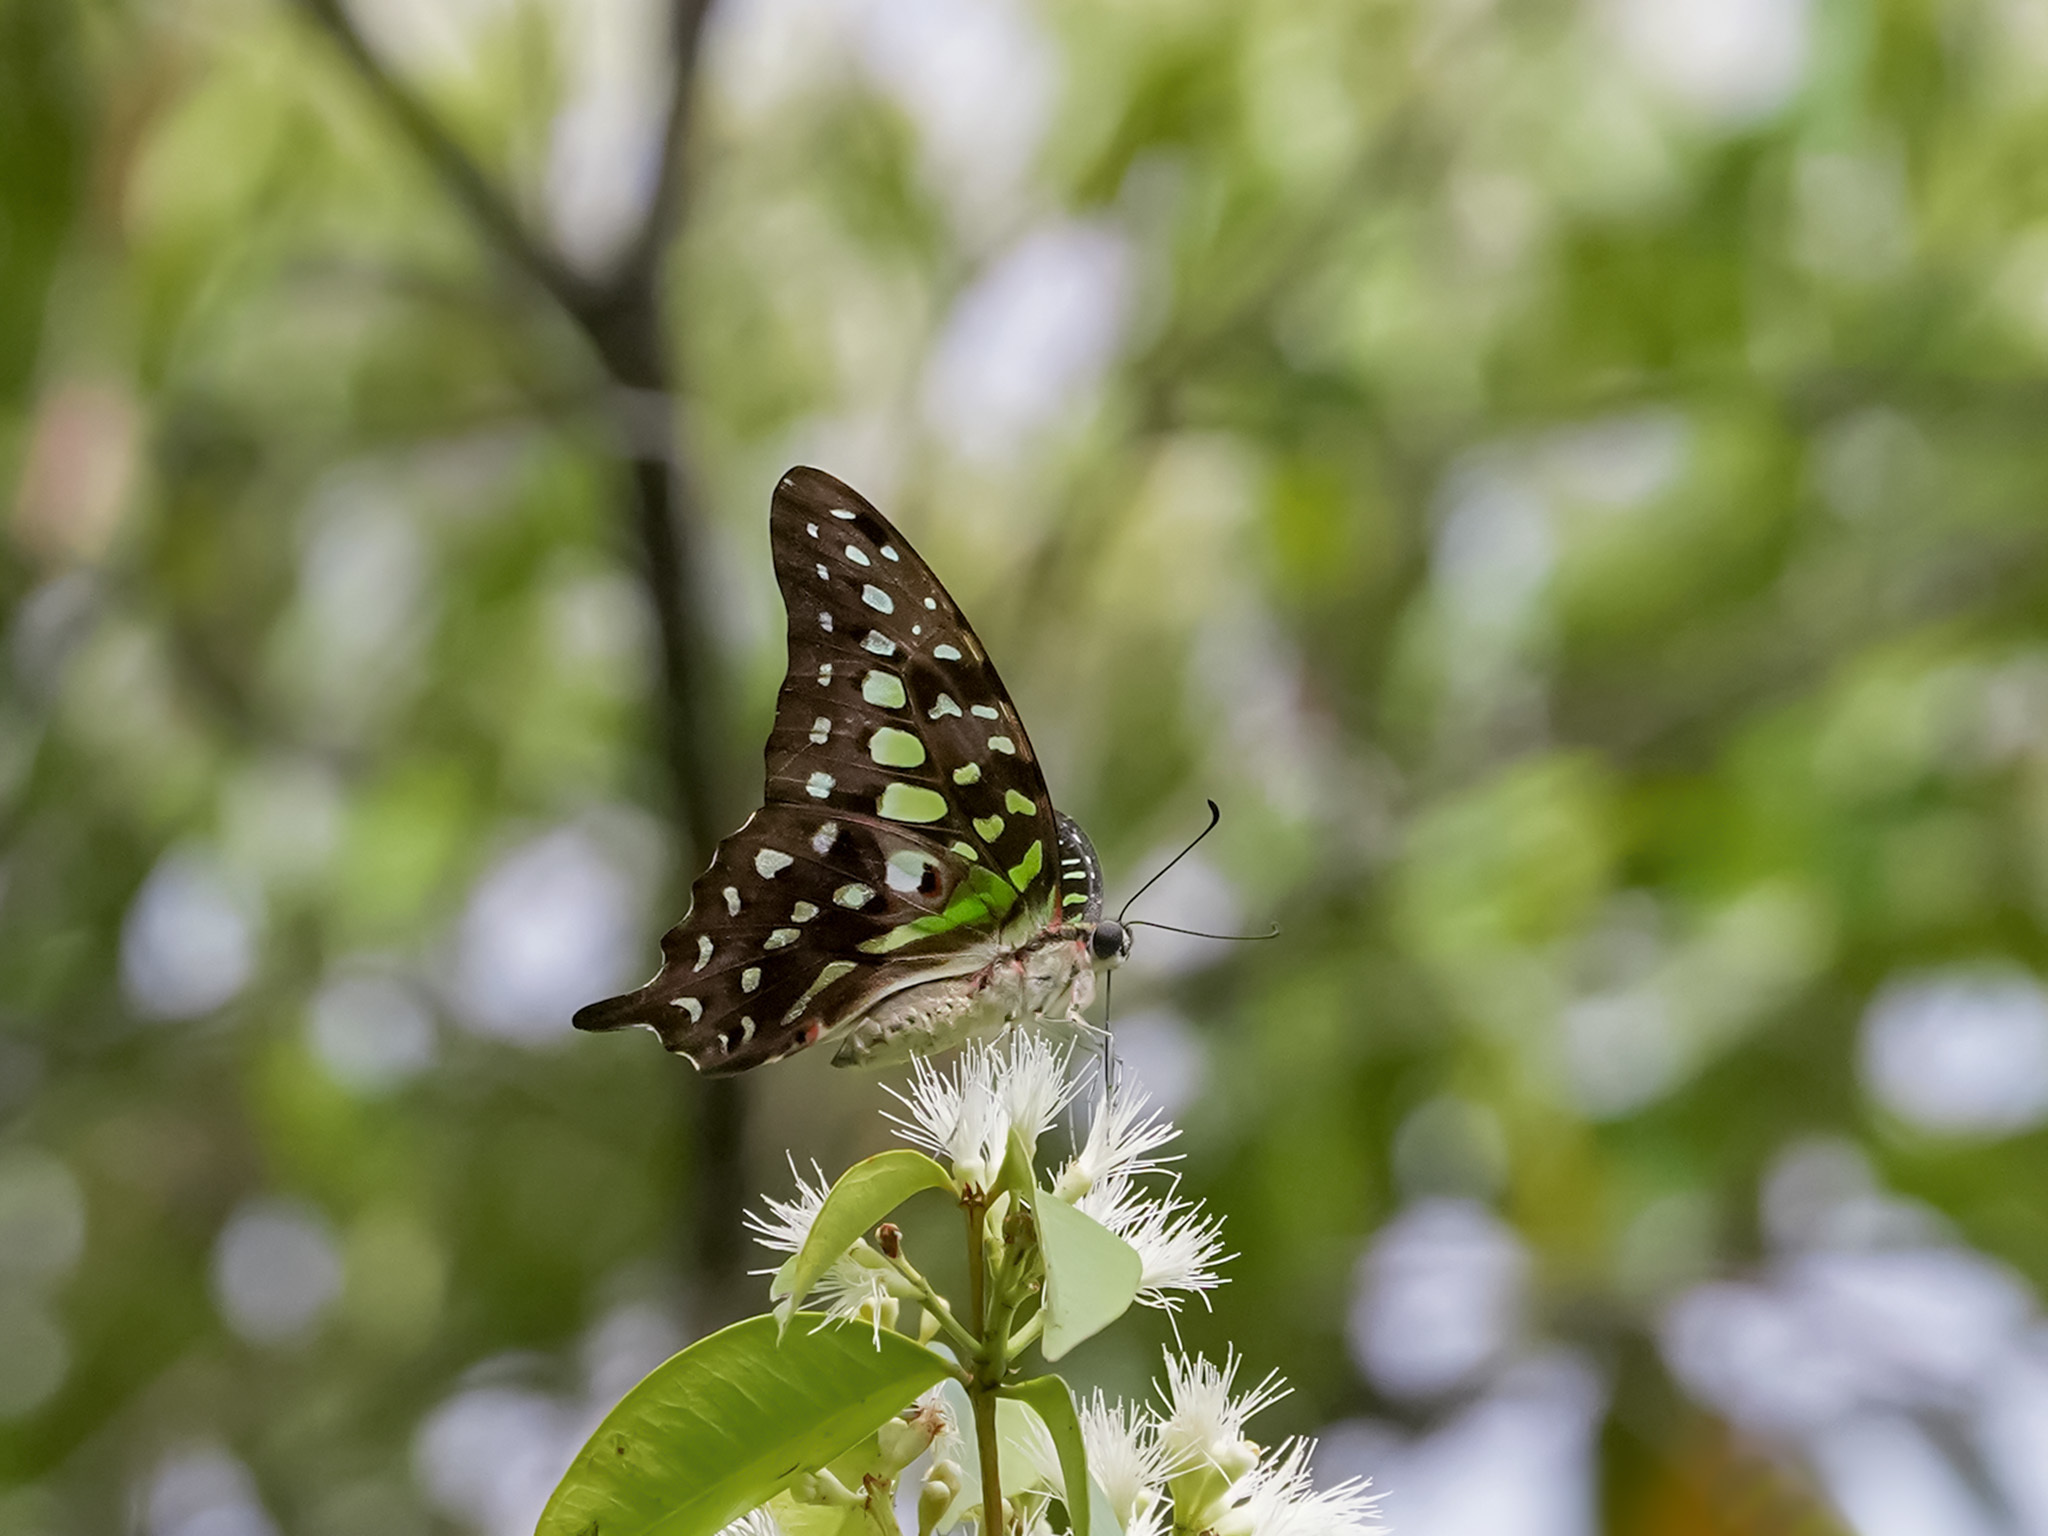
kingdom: Animalia
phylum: Arthropoda
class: Insecta
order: Lepidoptera
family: Papilionidae
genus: Graphium
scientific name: Graphium agamemnon
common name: Tailed jay
